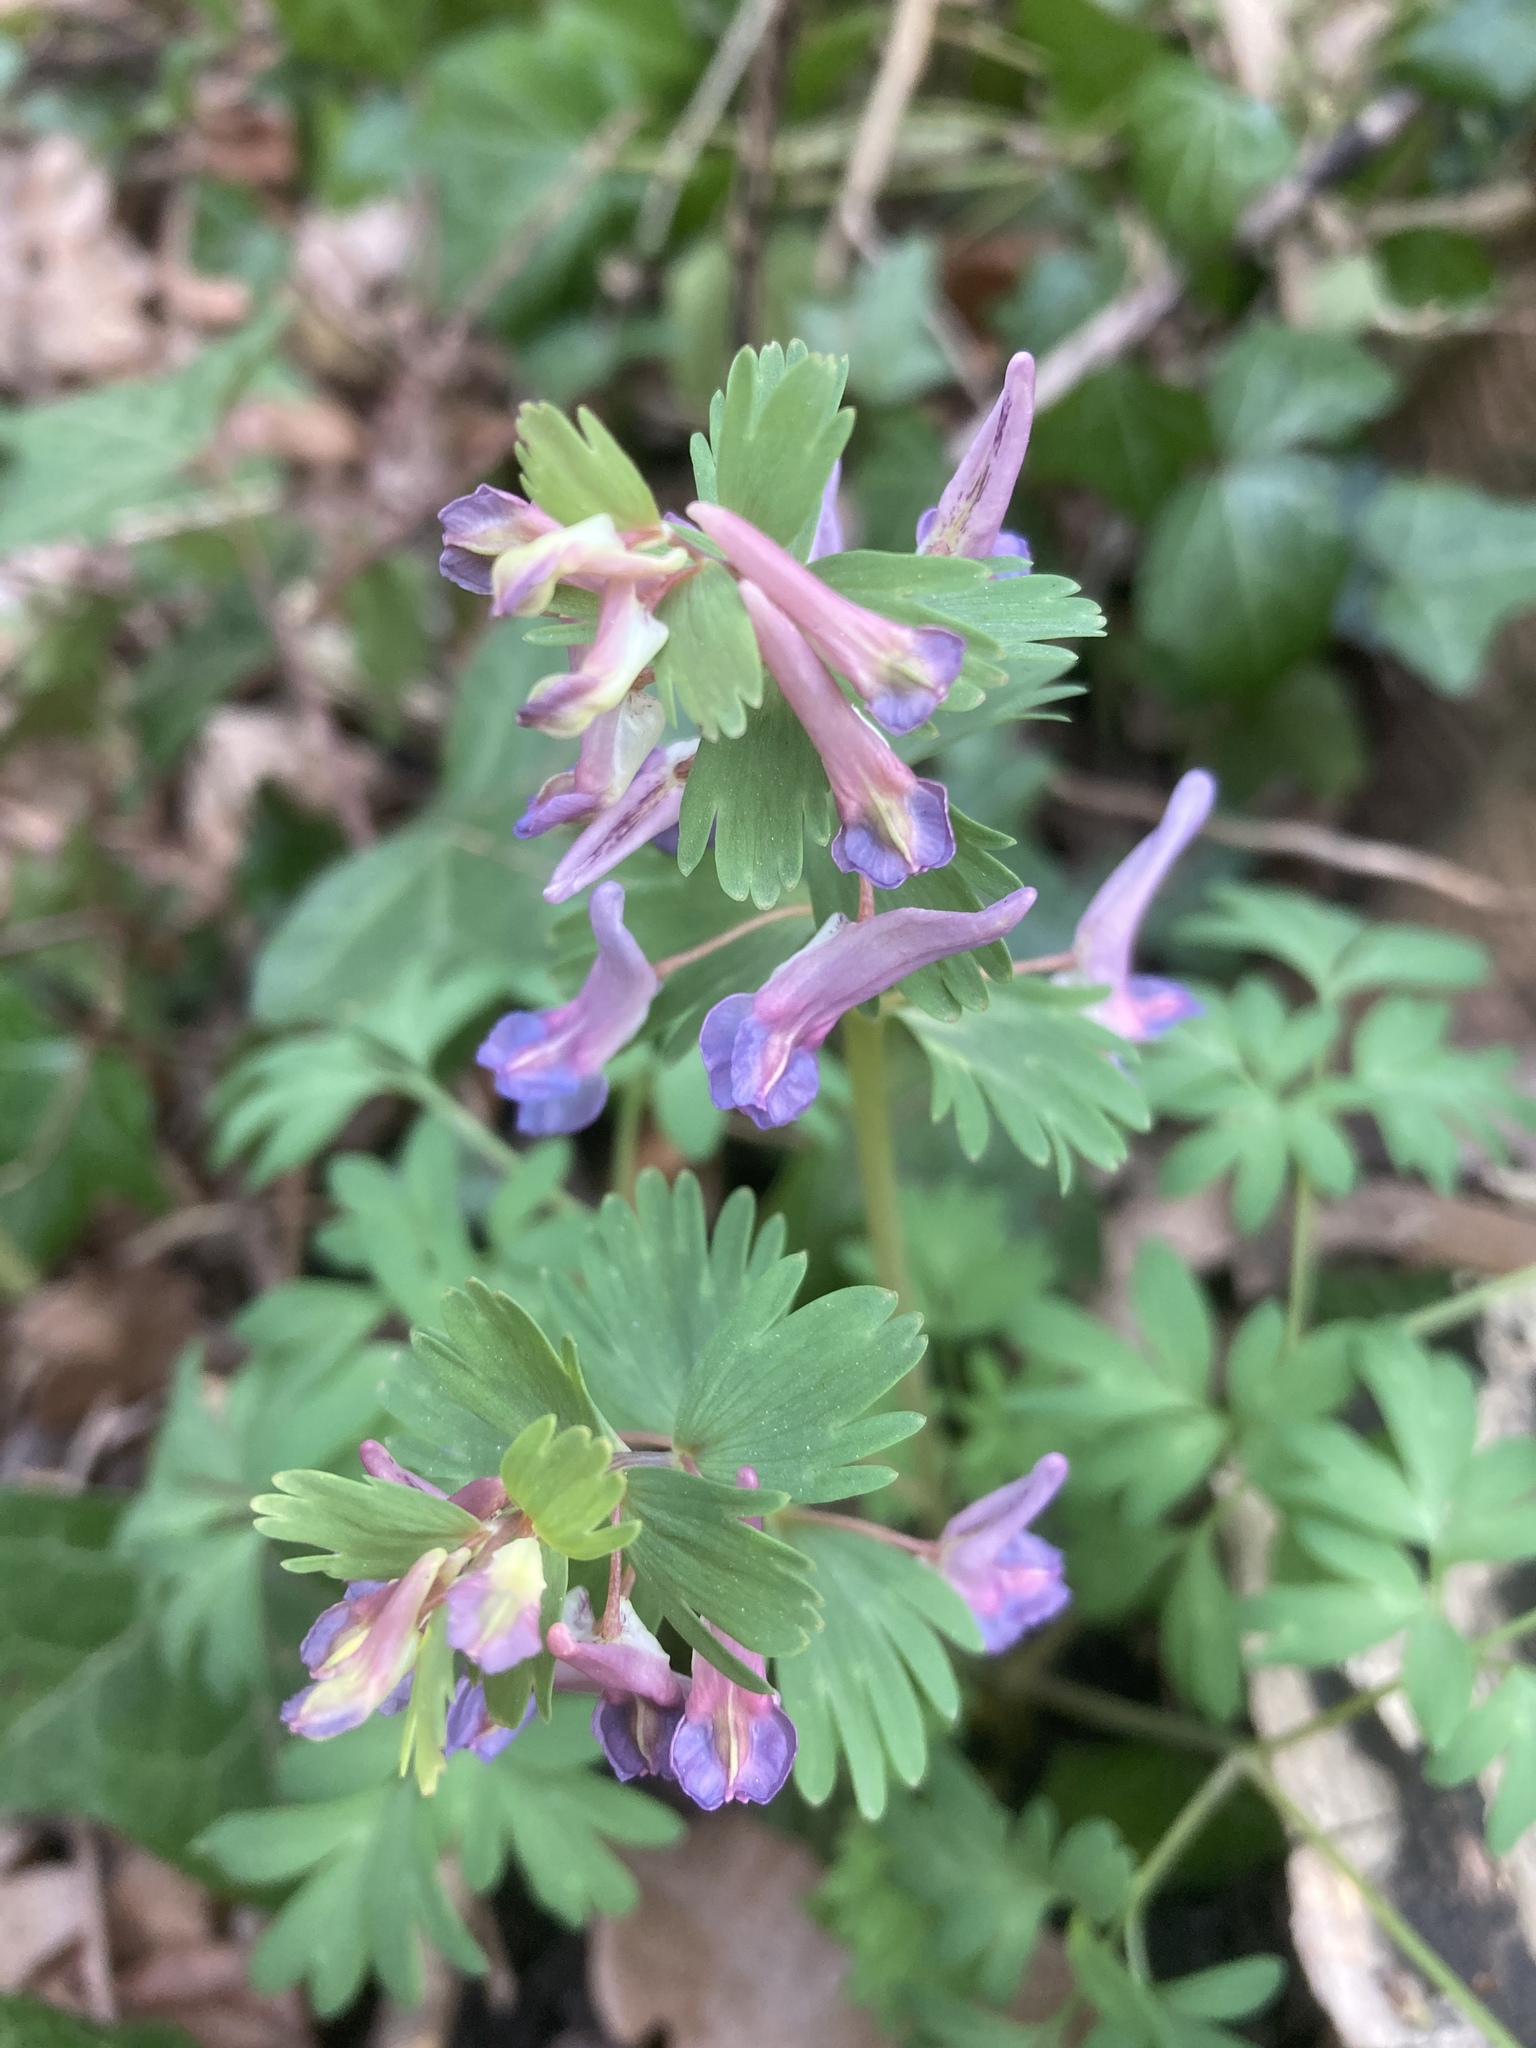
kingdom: Plantae
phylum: Tracheophyta
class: Magnoliopsida
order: Ranunculales
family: Papaveraceae
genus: Corydalis
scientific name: Corydalis solida
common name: Bird-in-a-bush
